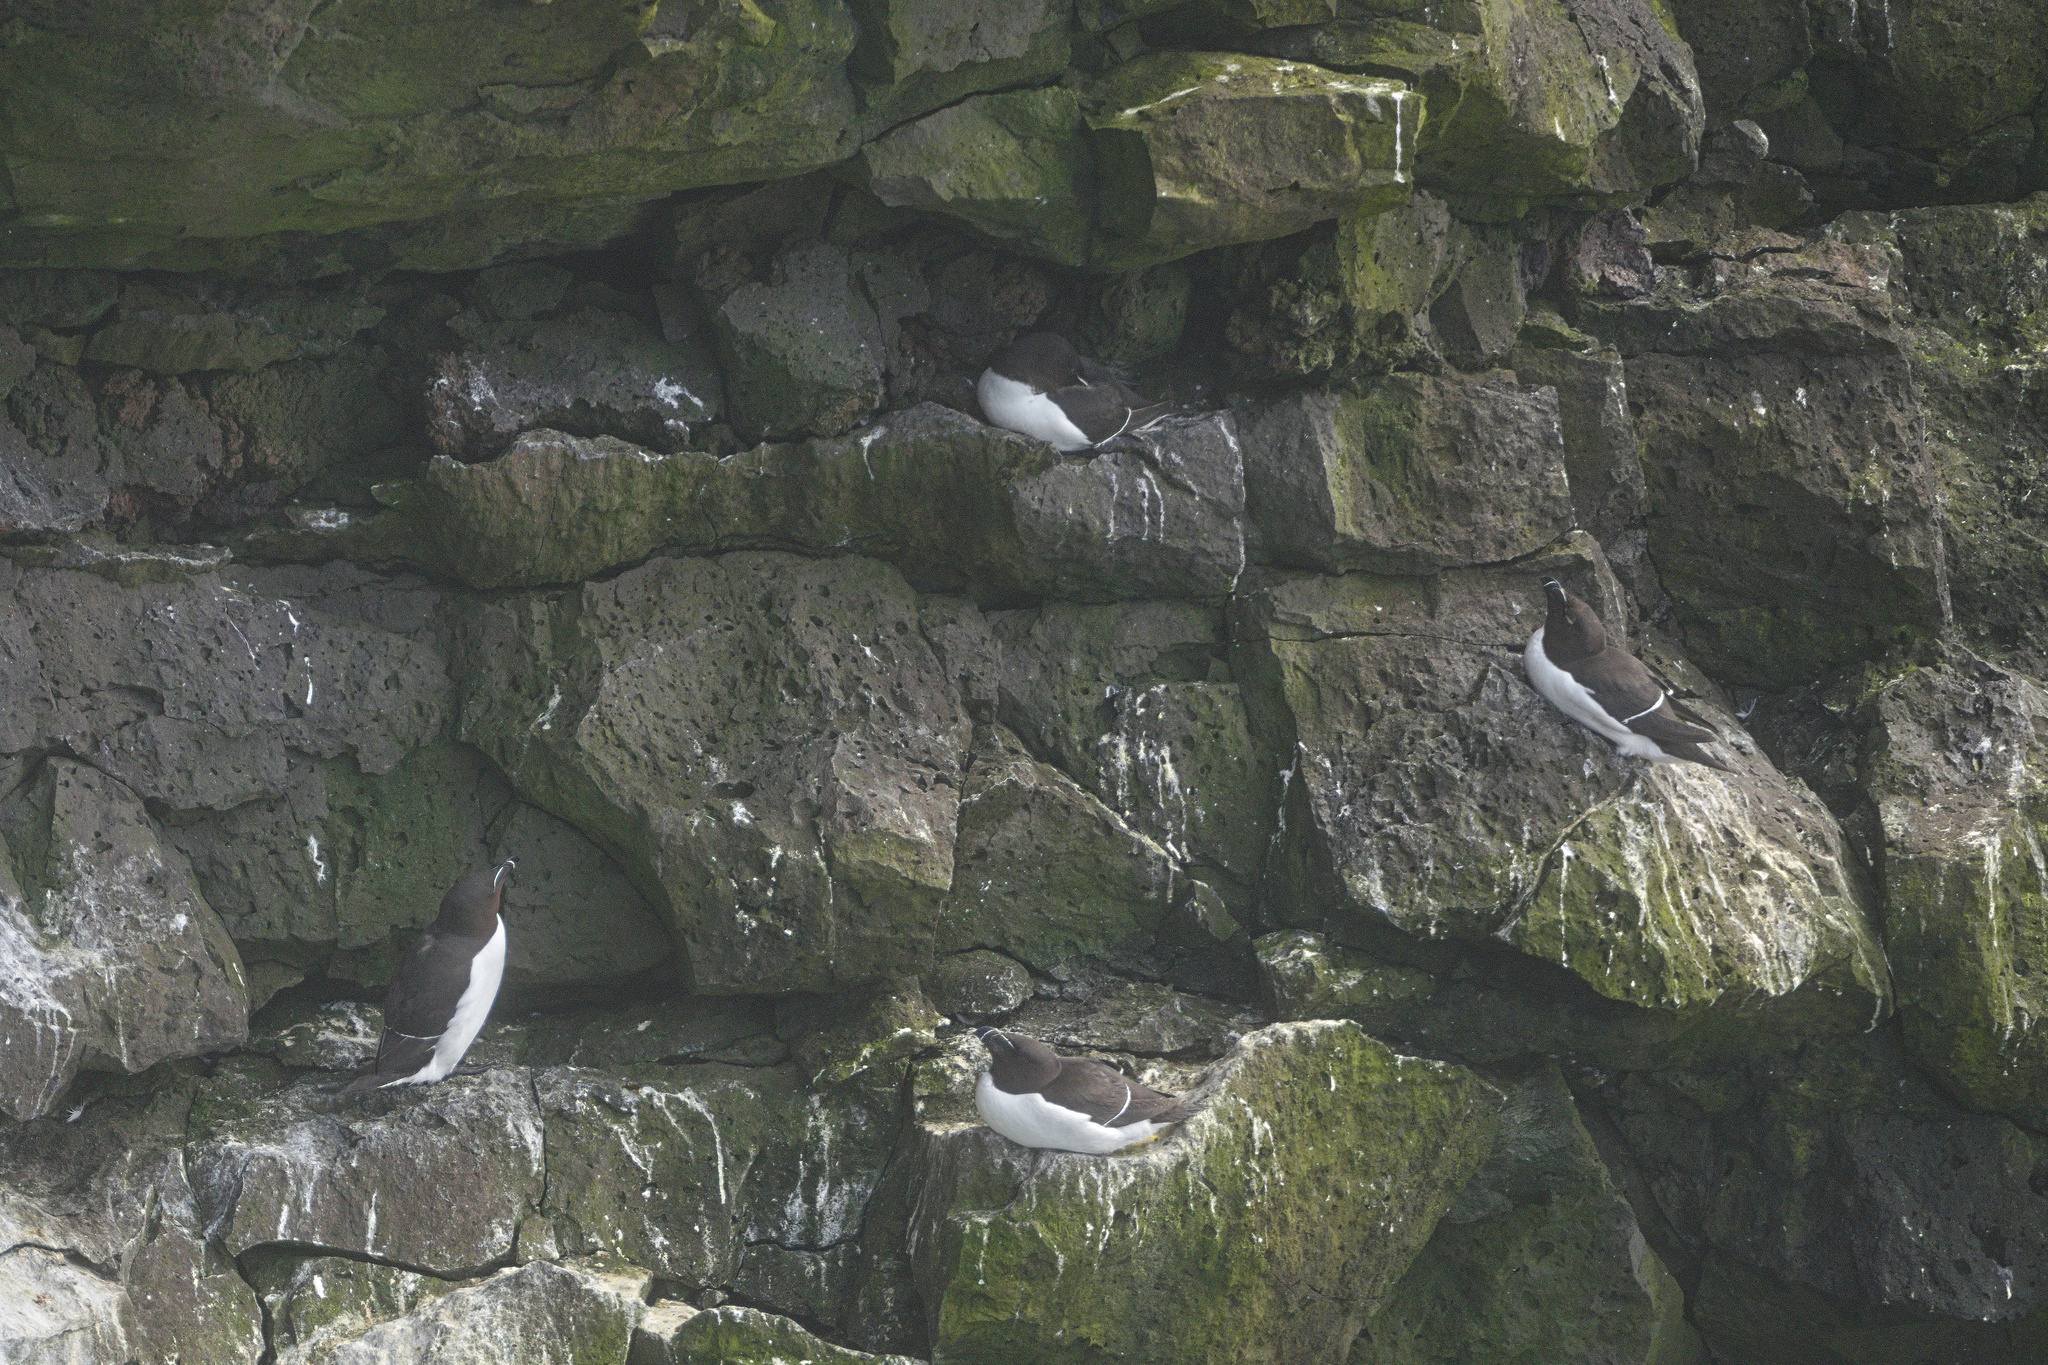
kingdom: Animalia
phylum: Chordata
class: Aves
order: Charadriiformes
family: Alcidae
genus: Alca
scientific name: Alca torda
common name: Razorbill
